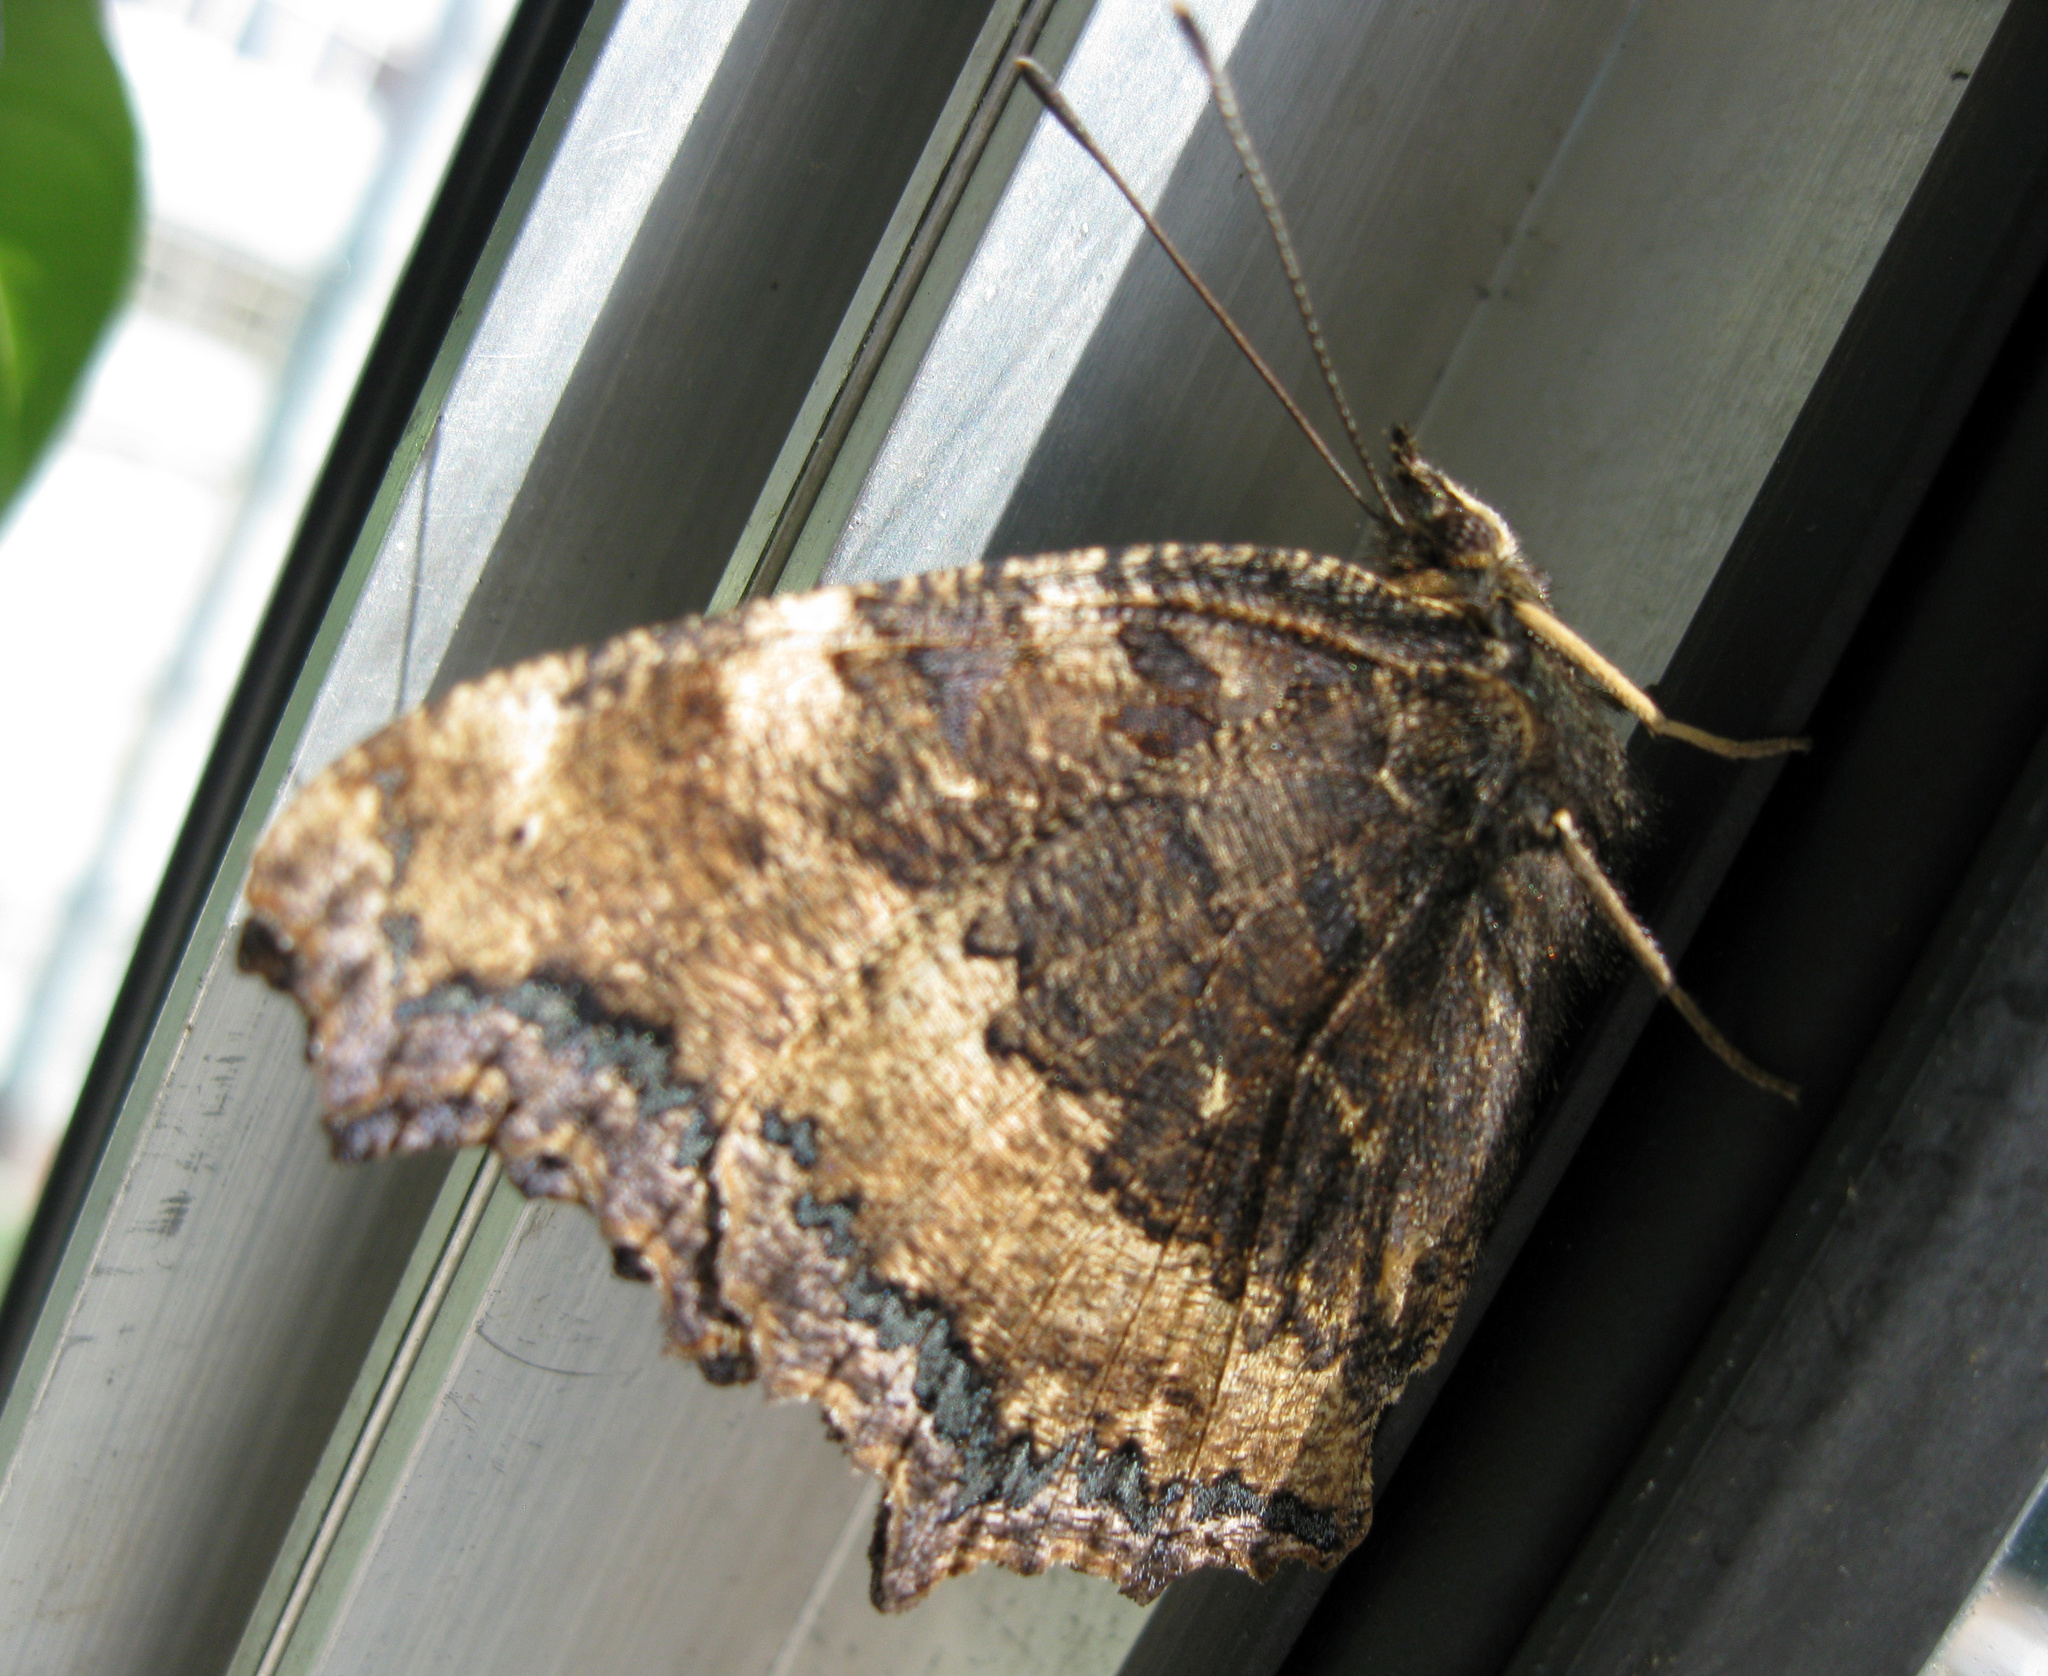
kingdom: Animalia
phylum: Arthropoda
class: Insecta
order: Lepidoptera
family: Nymphalidae
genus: Nymphalis
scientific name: Nymphalis xanthomelas
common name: Scarce tortoiseshell
